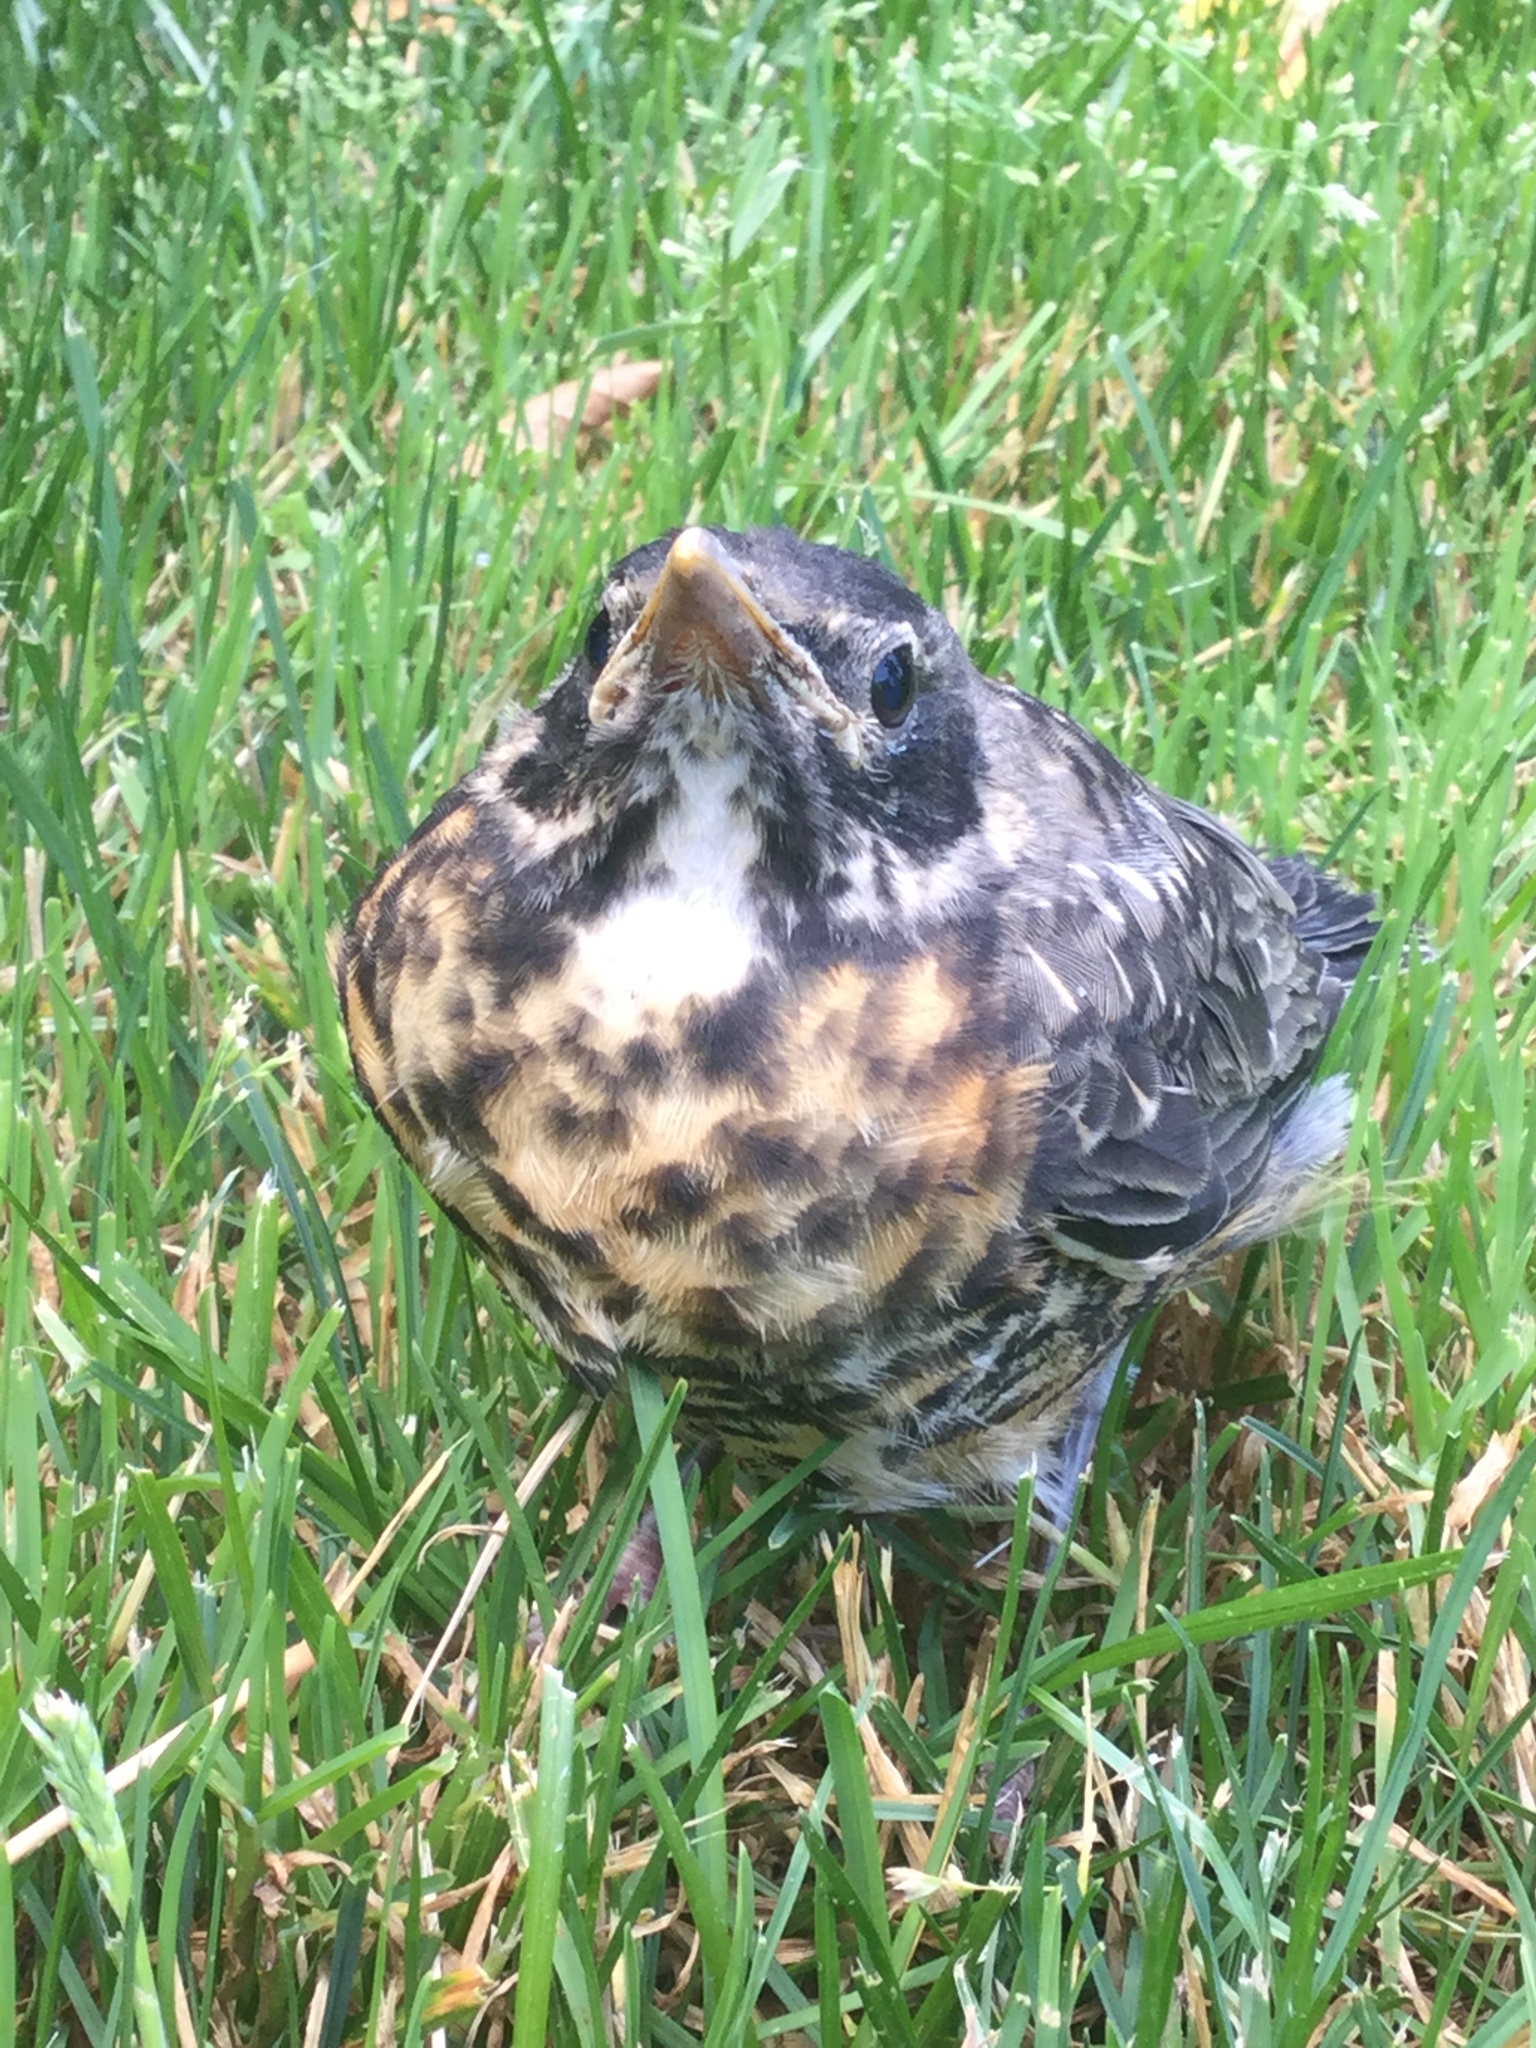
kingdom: Animalia
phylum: Chordata
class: Aves
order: Passeriformes
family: Turdidae
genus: Turdus
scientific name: Turdus migratorius
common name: American robin
